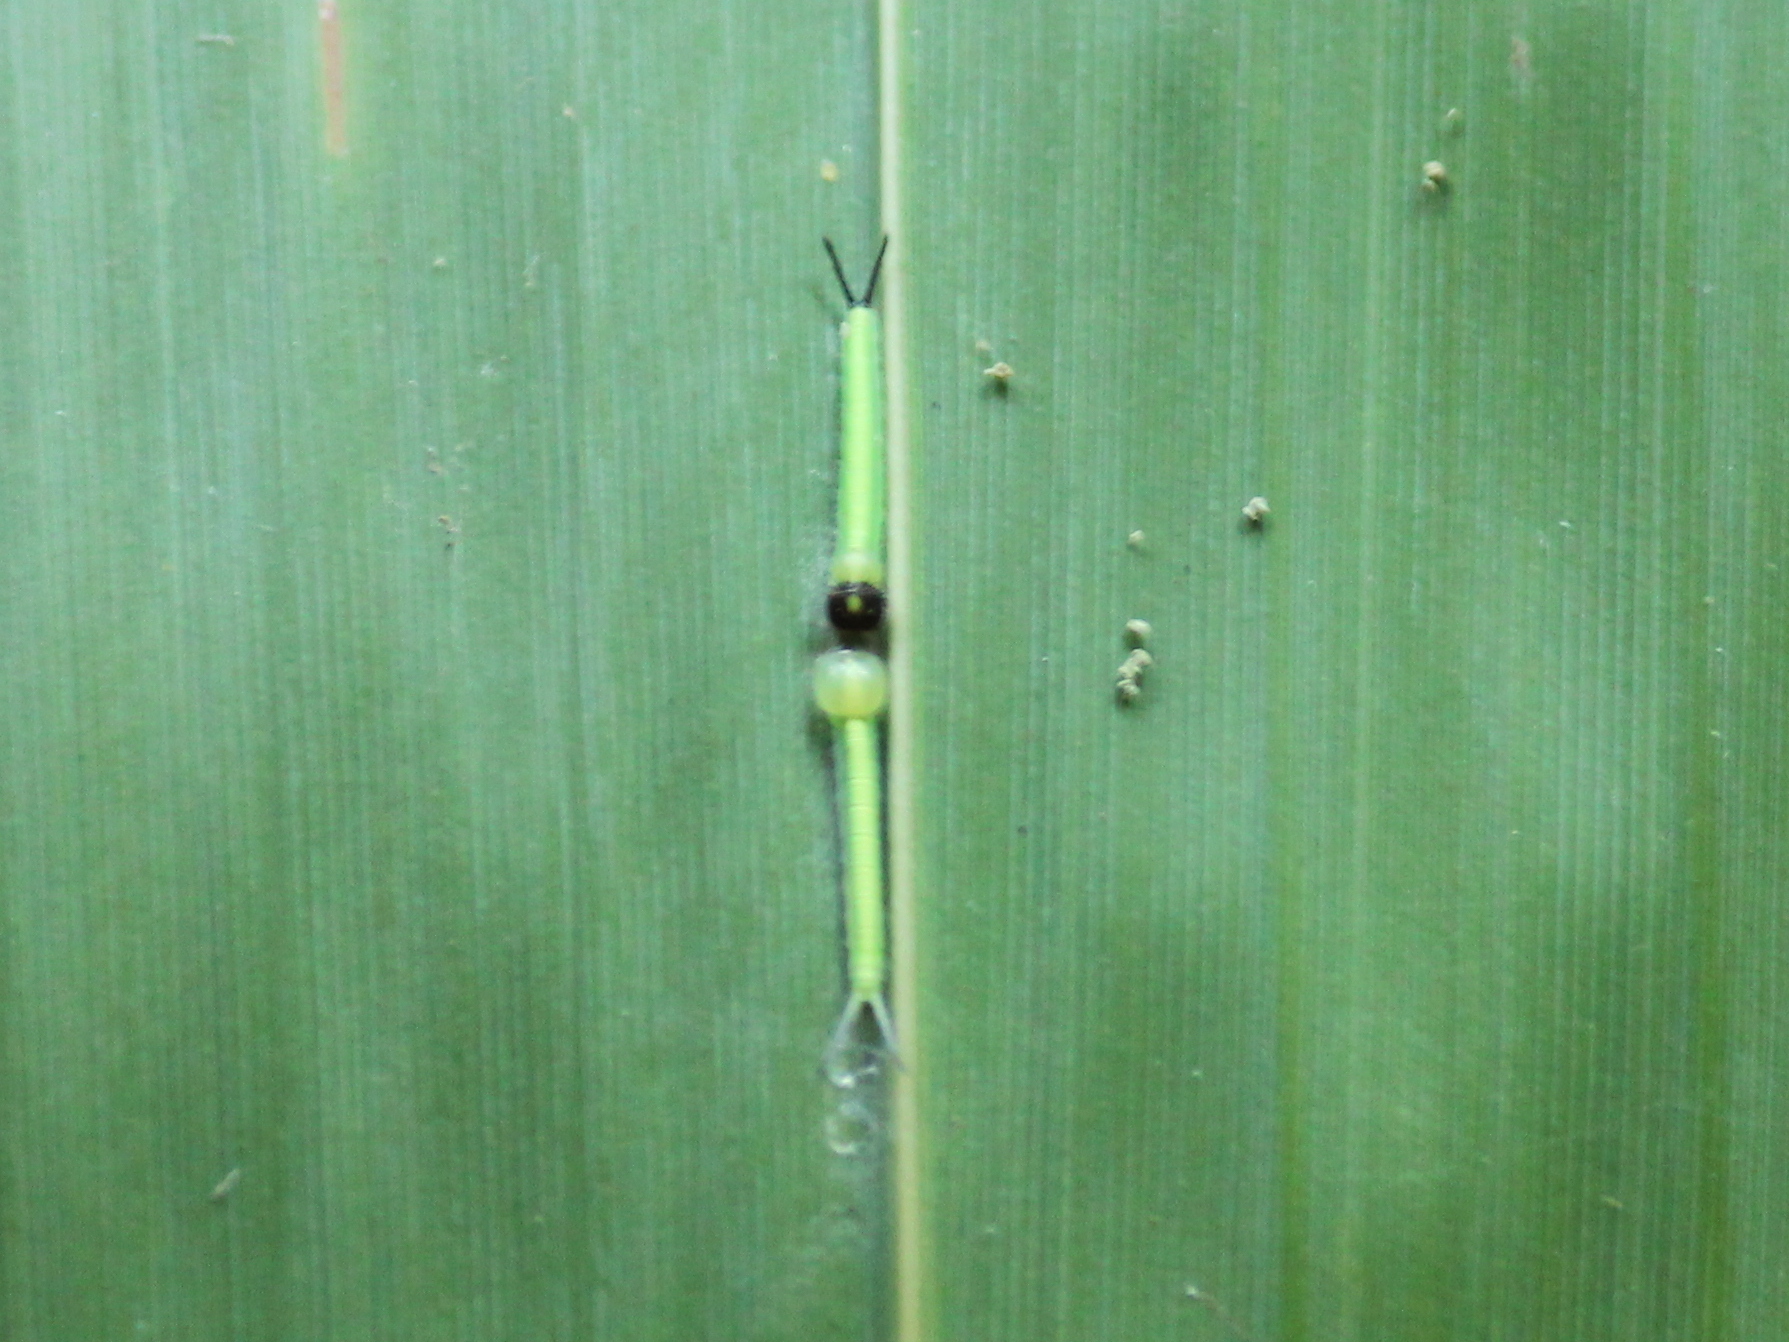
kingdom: Animalia
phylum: Arthropoda
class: Insecta
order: Lepidoptera
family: Nymphalidae
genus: Parantirrhoea
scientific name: Parantirrhoea marshalli
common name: Travancore evening brown
